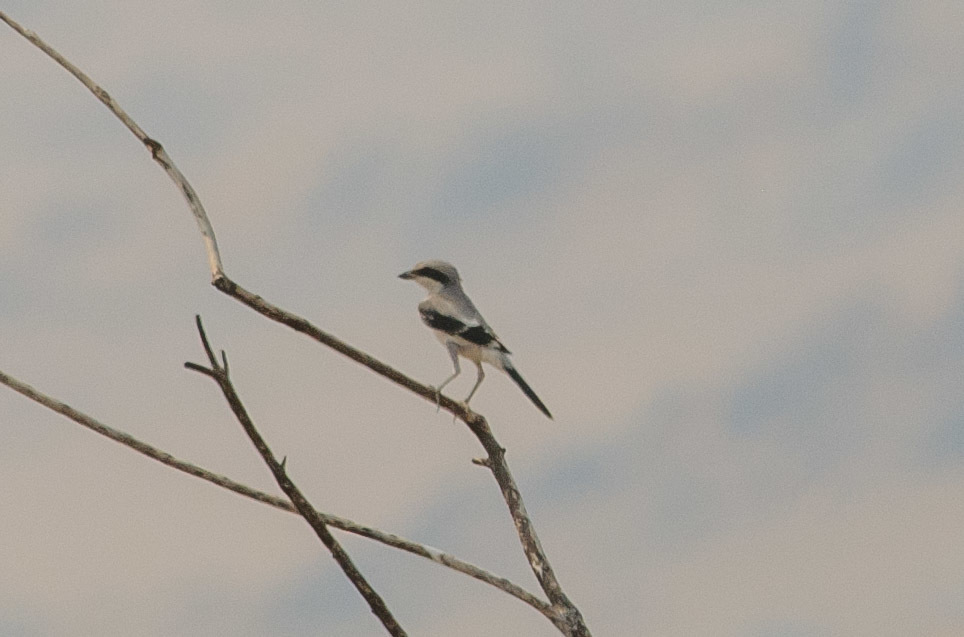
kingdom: Animalia
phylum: Chordata
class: Aves
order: Passeriformes
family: Laniidae
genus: Lanius
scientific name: Lanius ludovicianus
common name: Loggerhead shrike
